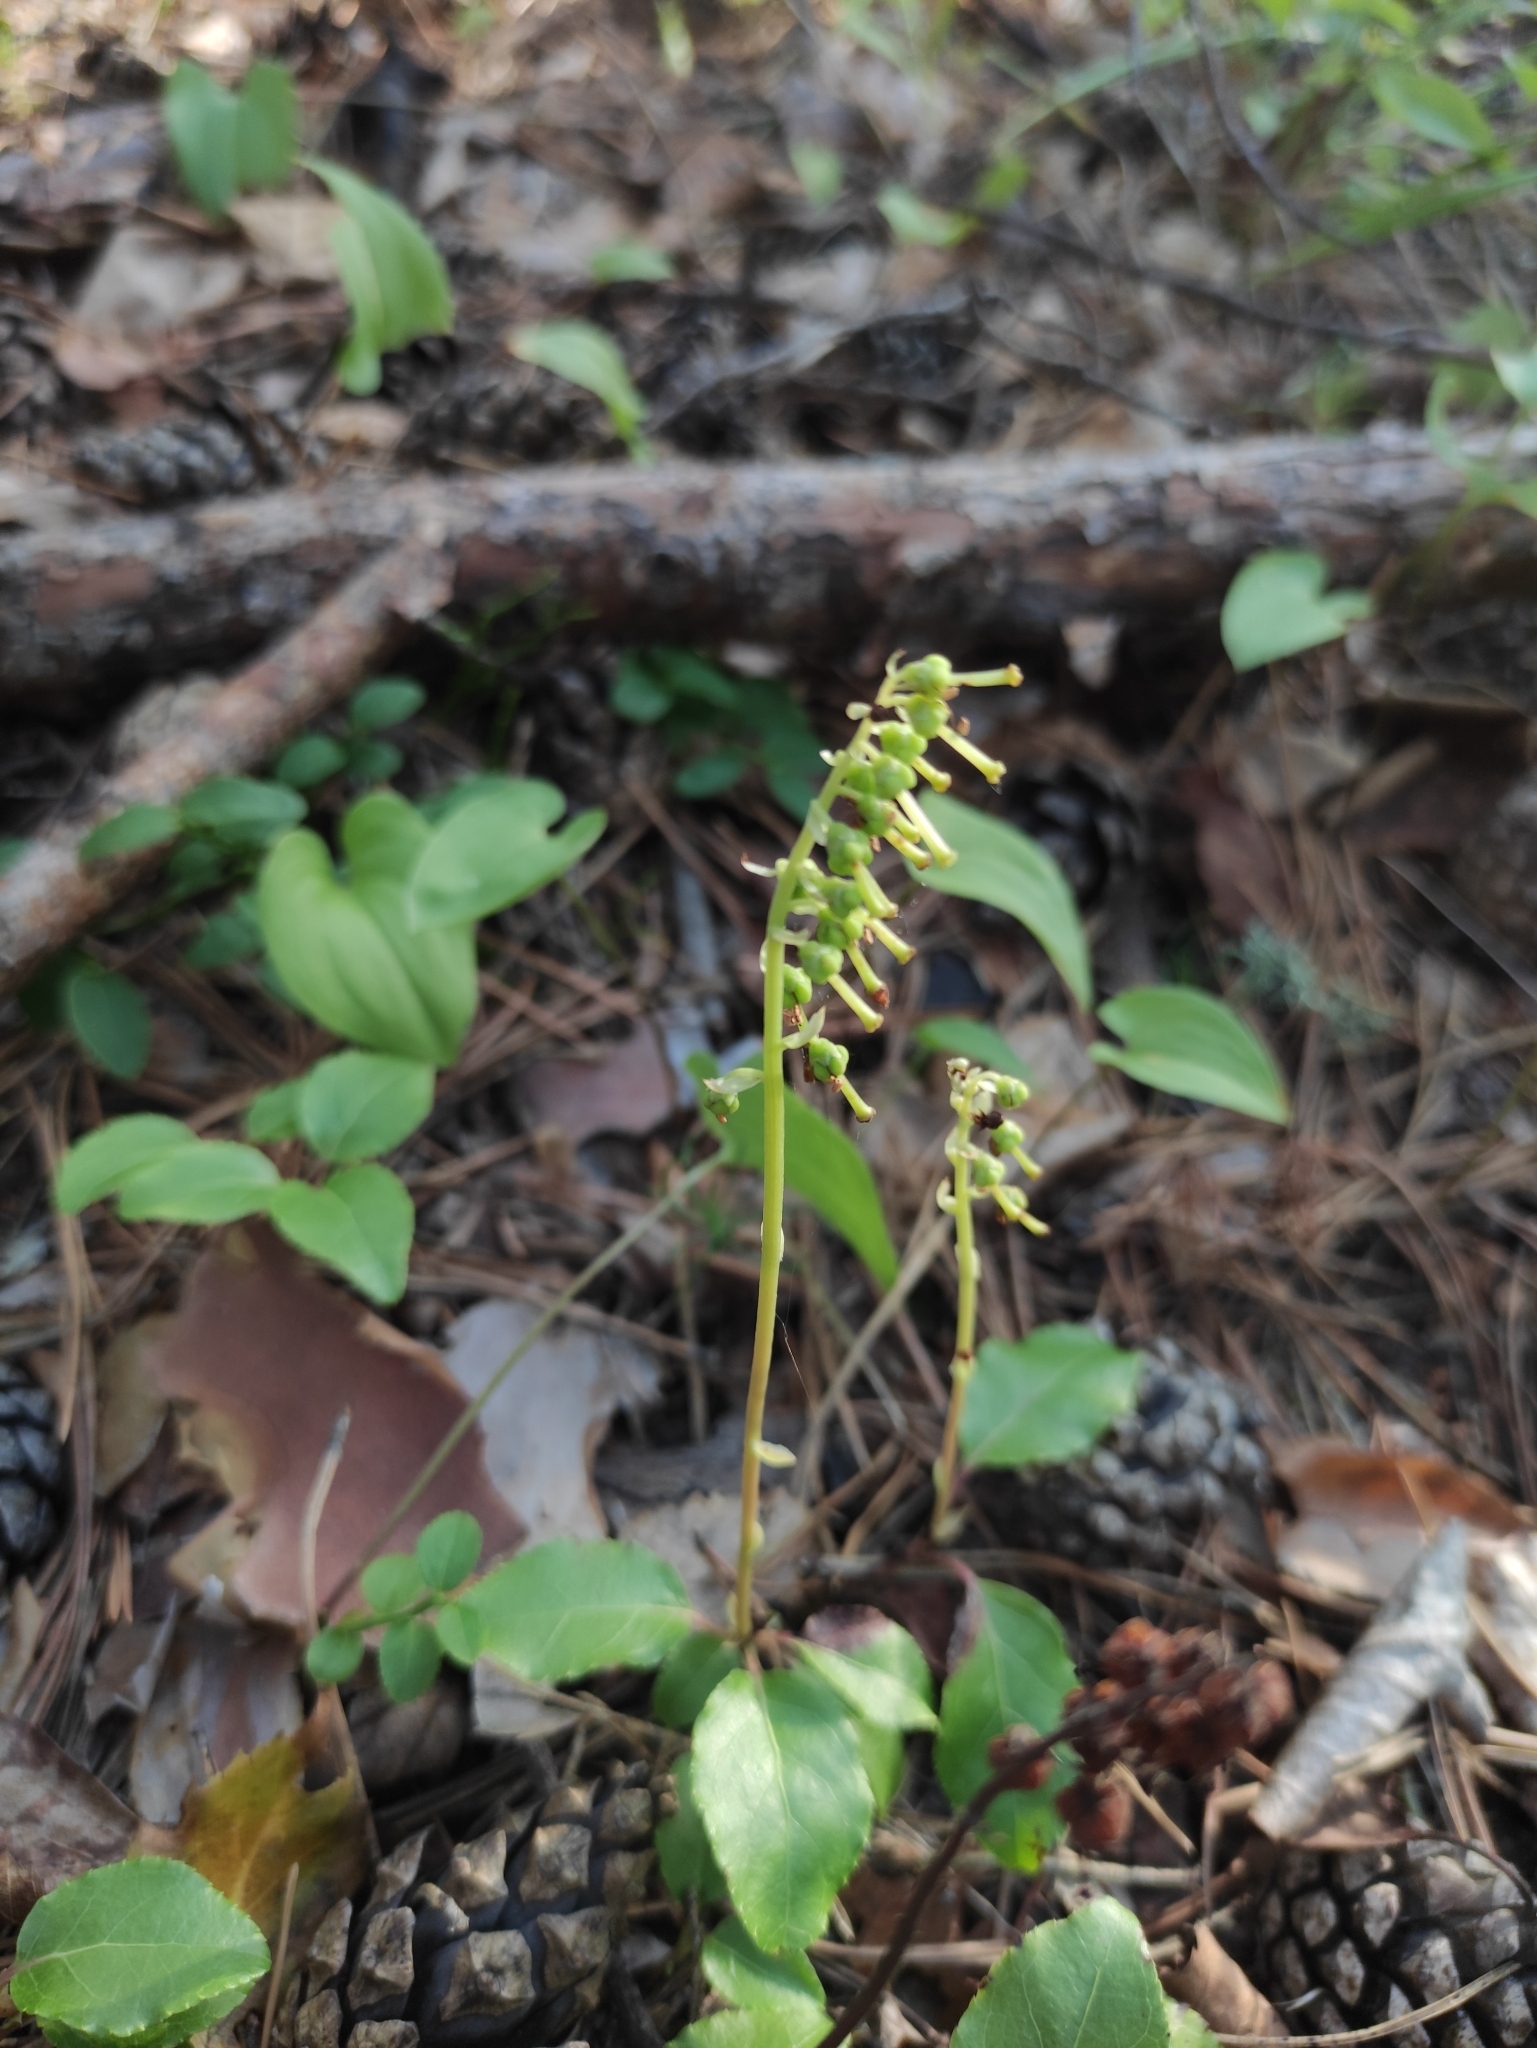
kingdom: Plantae
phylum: Tracheophyta
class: Magnoliopsida
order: Ericales
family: Ericaceae
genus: Orthilia
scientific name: Orthilia secunda
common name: One-sided orthilia
